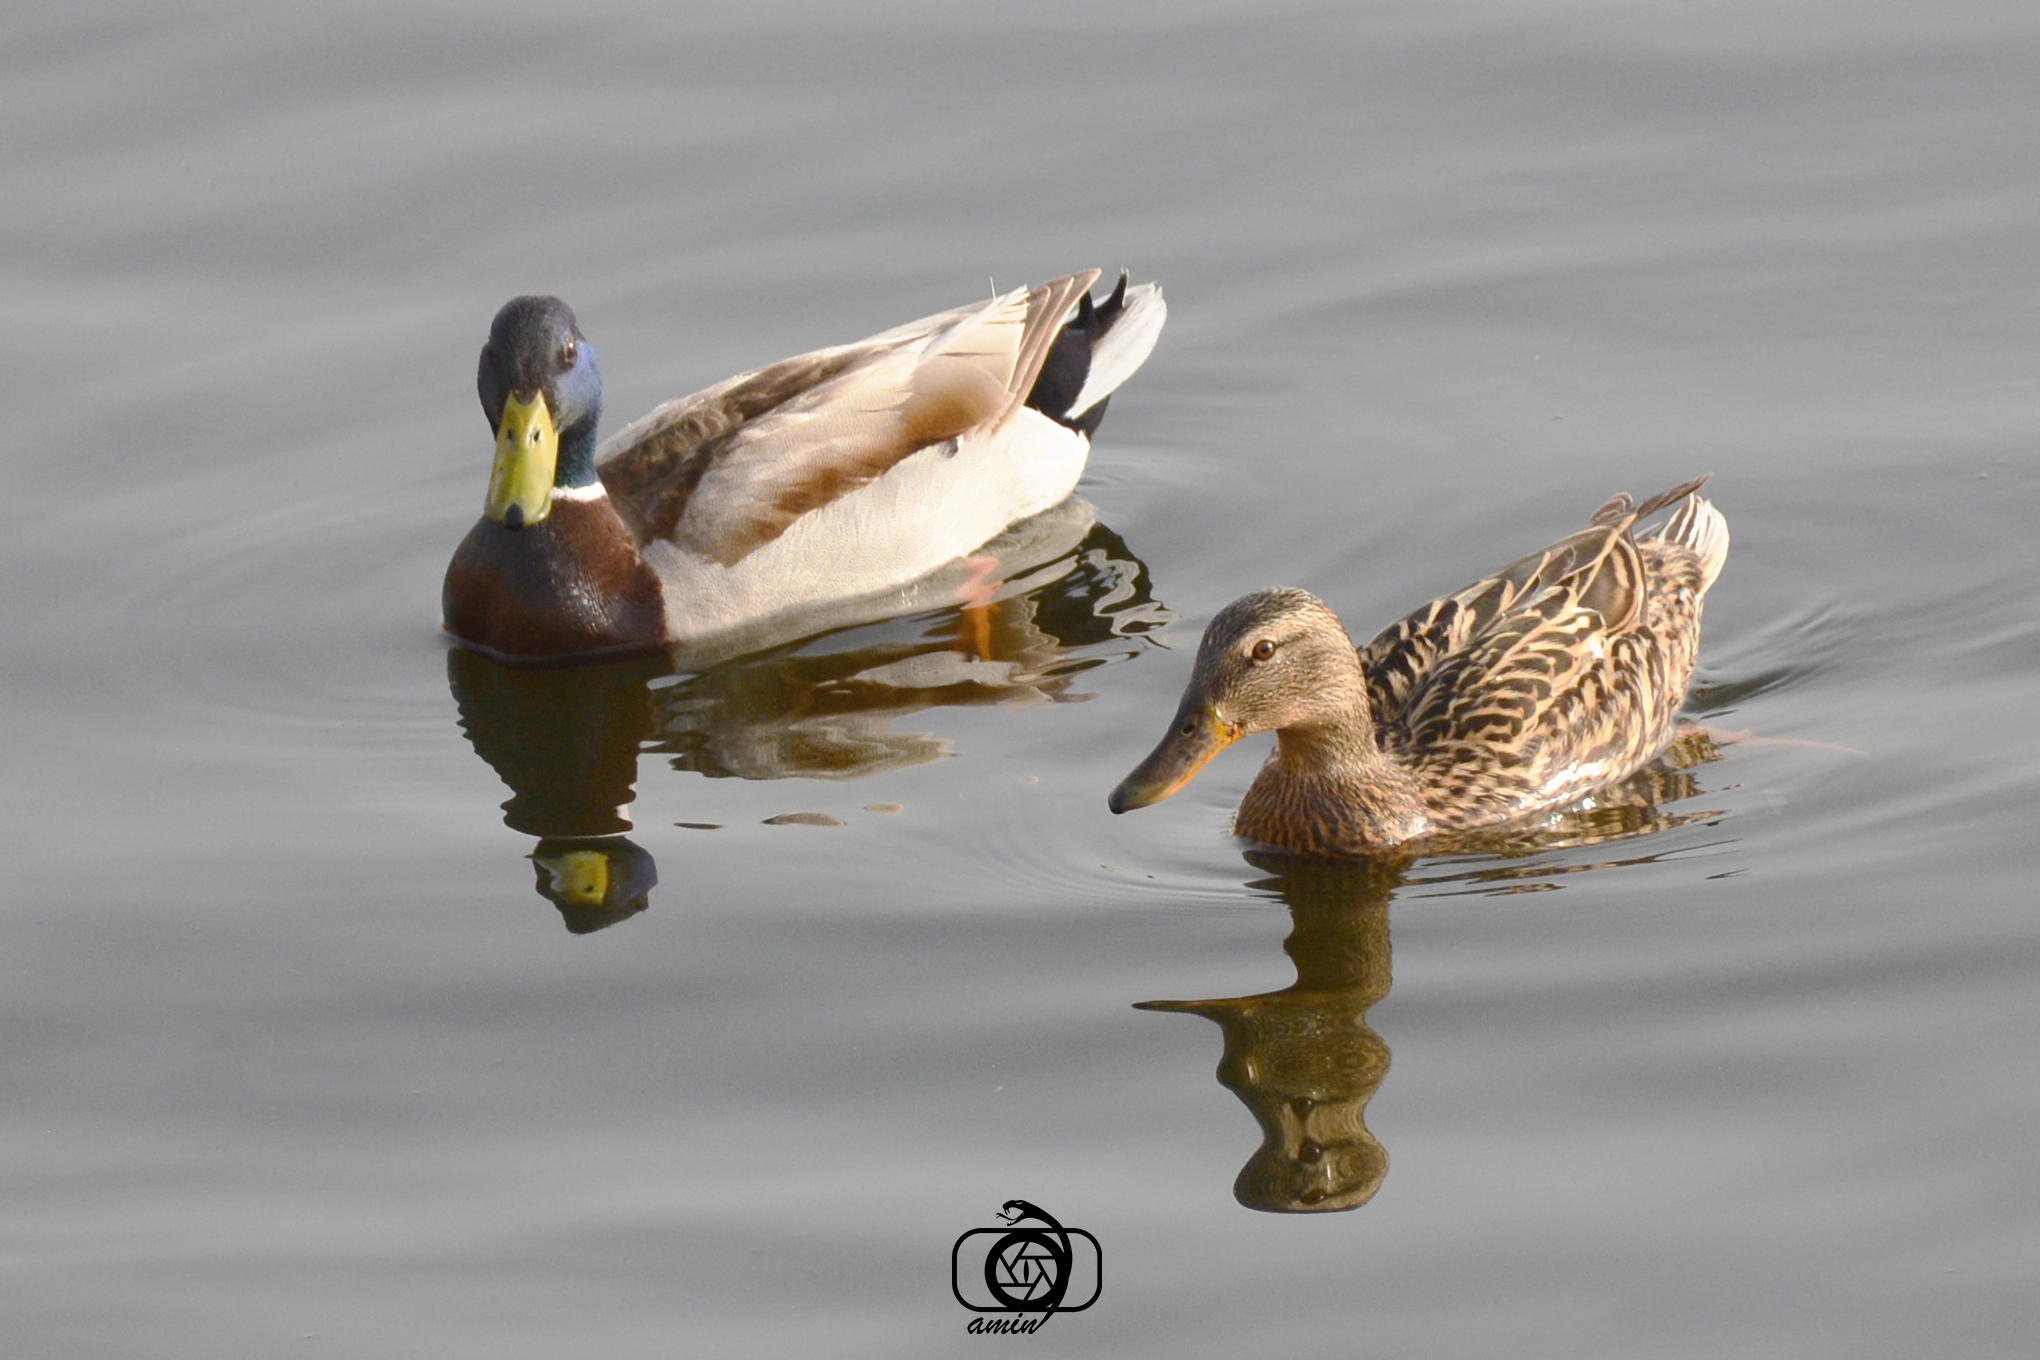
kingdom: Animalia
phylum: Chordata
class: Aves
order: Anseriformes
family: Anatidae
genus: Anas
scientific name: Anas platyrhynchos
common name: Mallard
